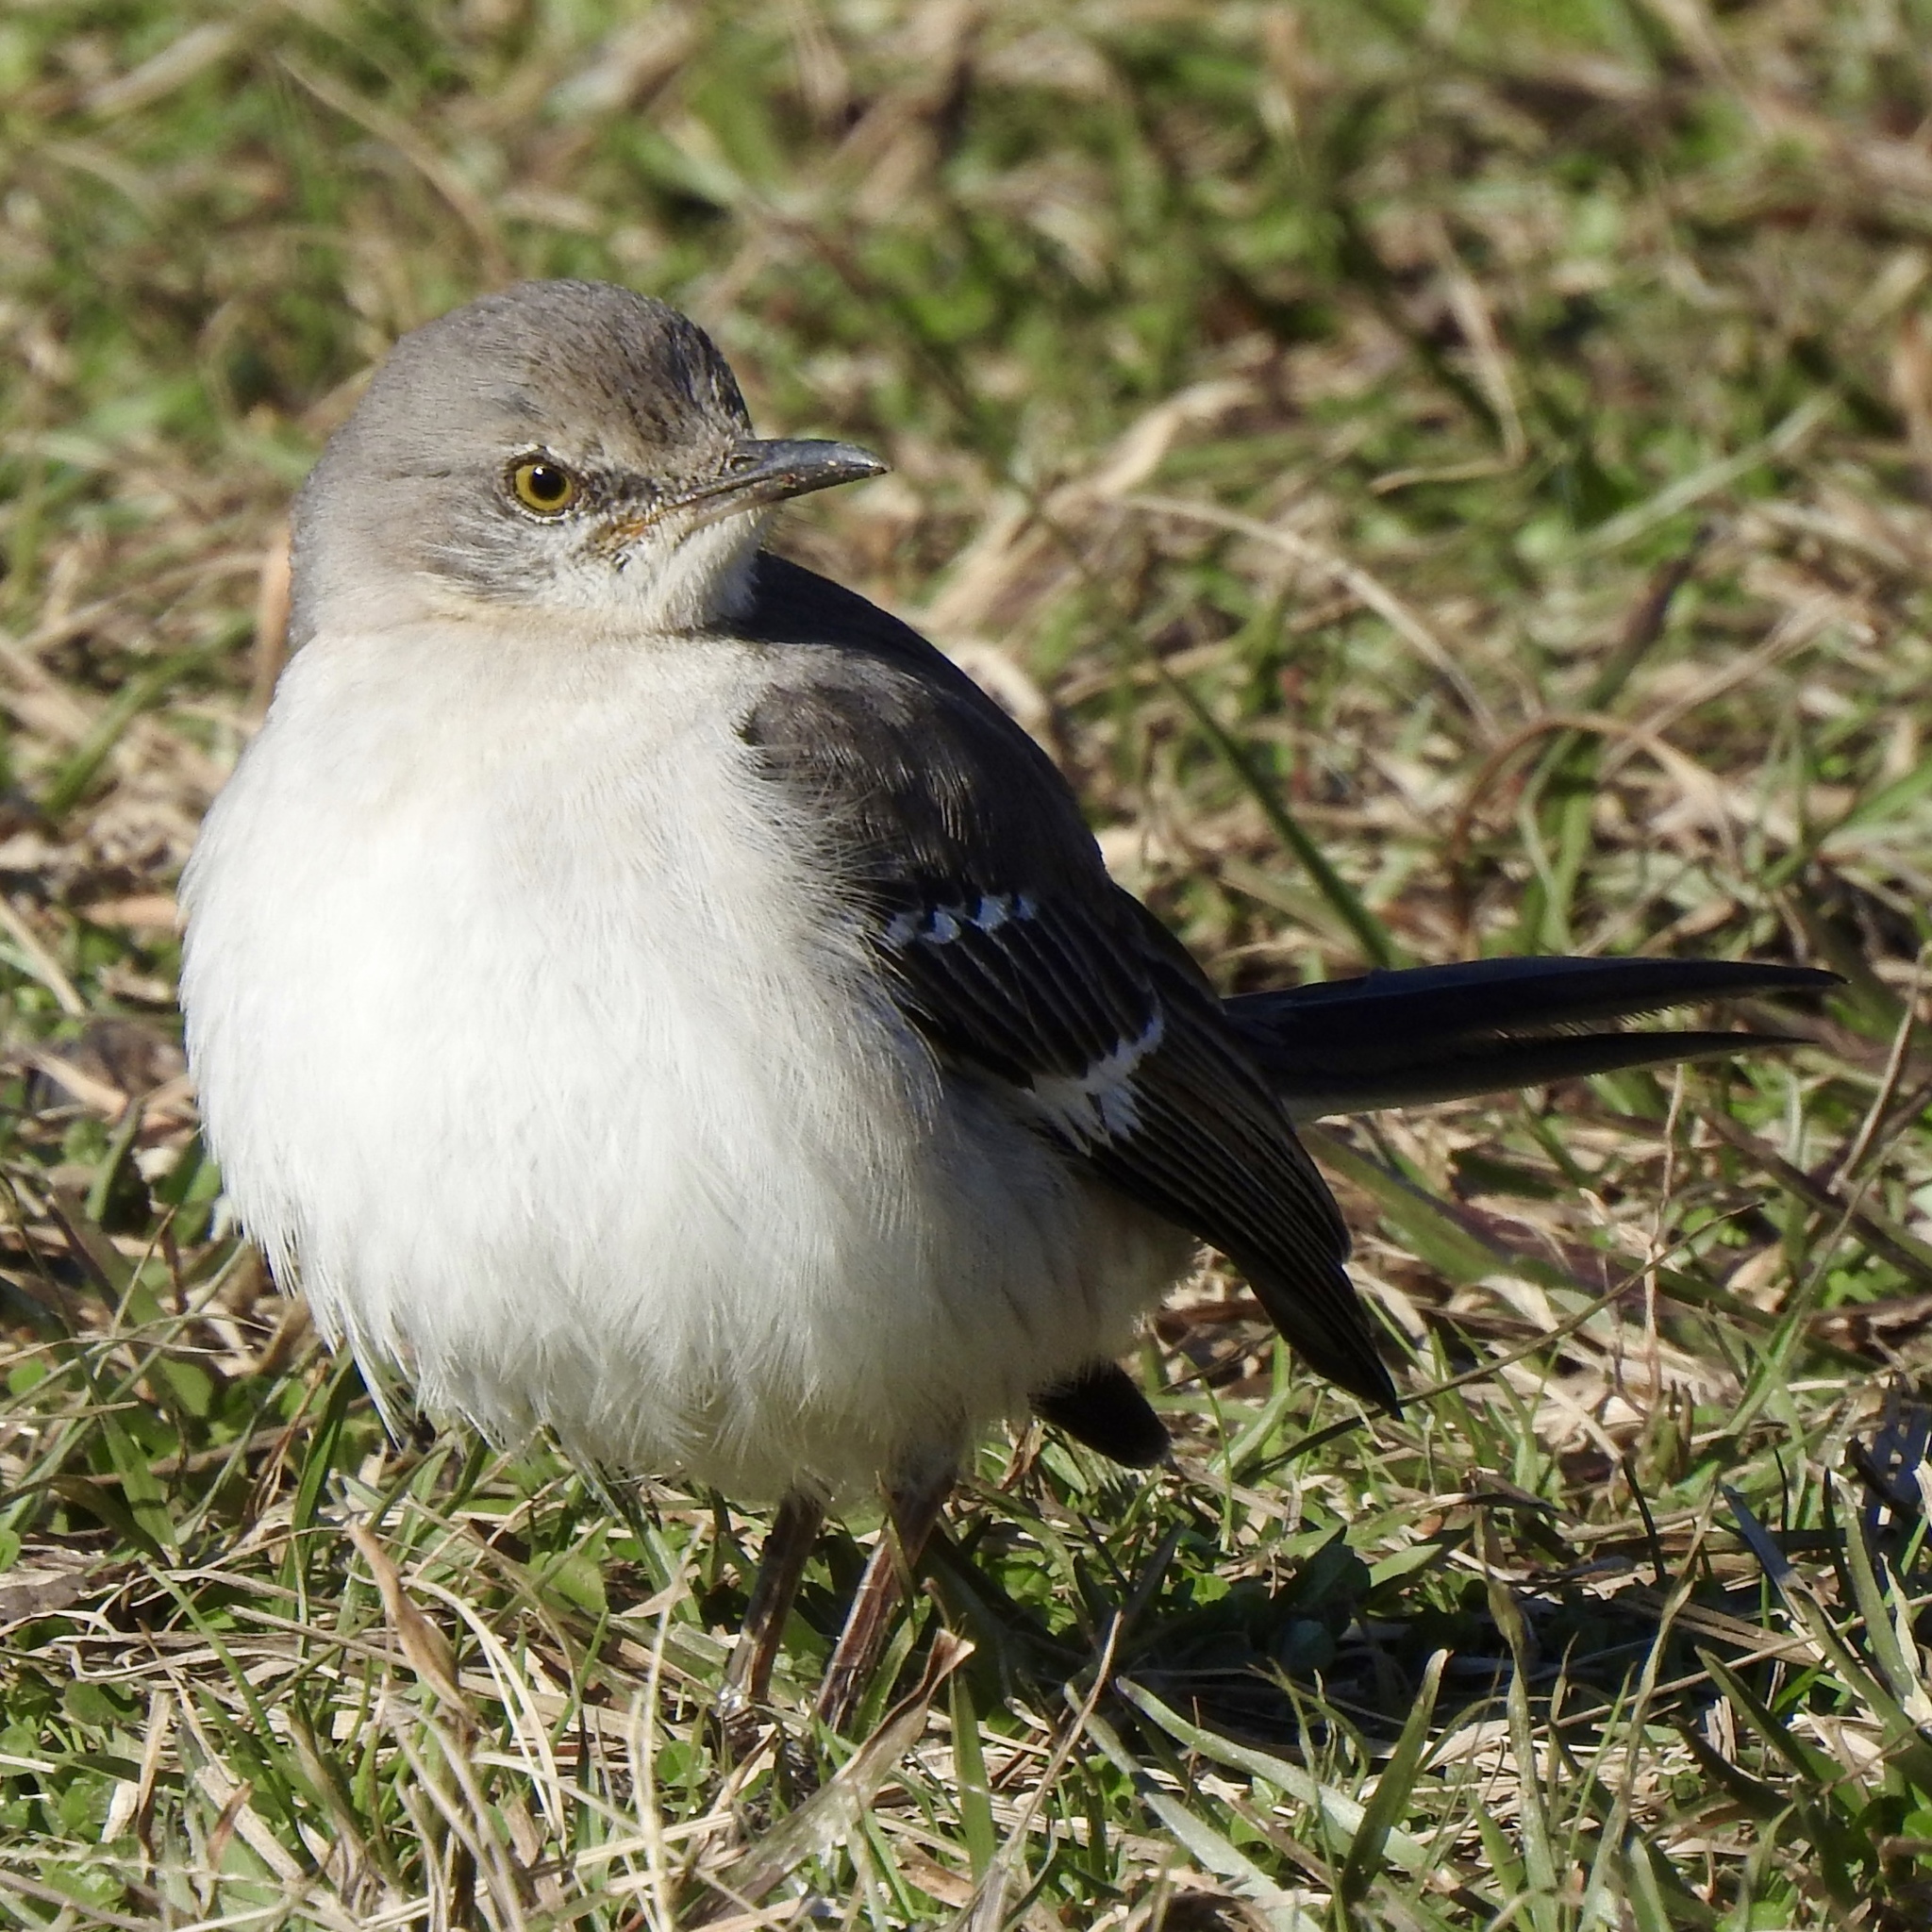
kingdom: Animalia
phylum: Chordata
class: Aves
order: Passeriformes
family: Mimidae
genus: Mimus
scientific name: Mimus polyglottos
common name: Northern mockingbird
